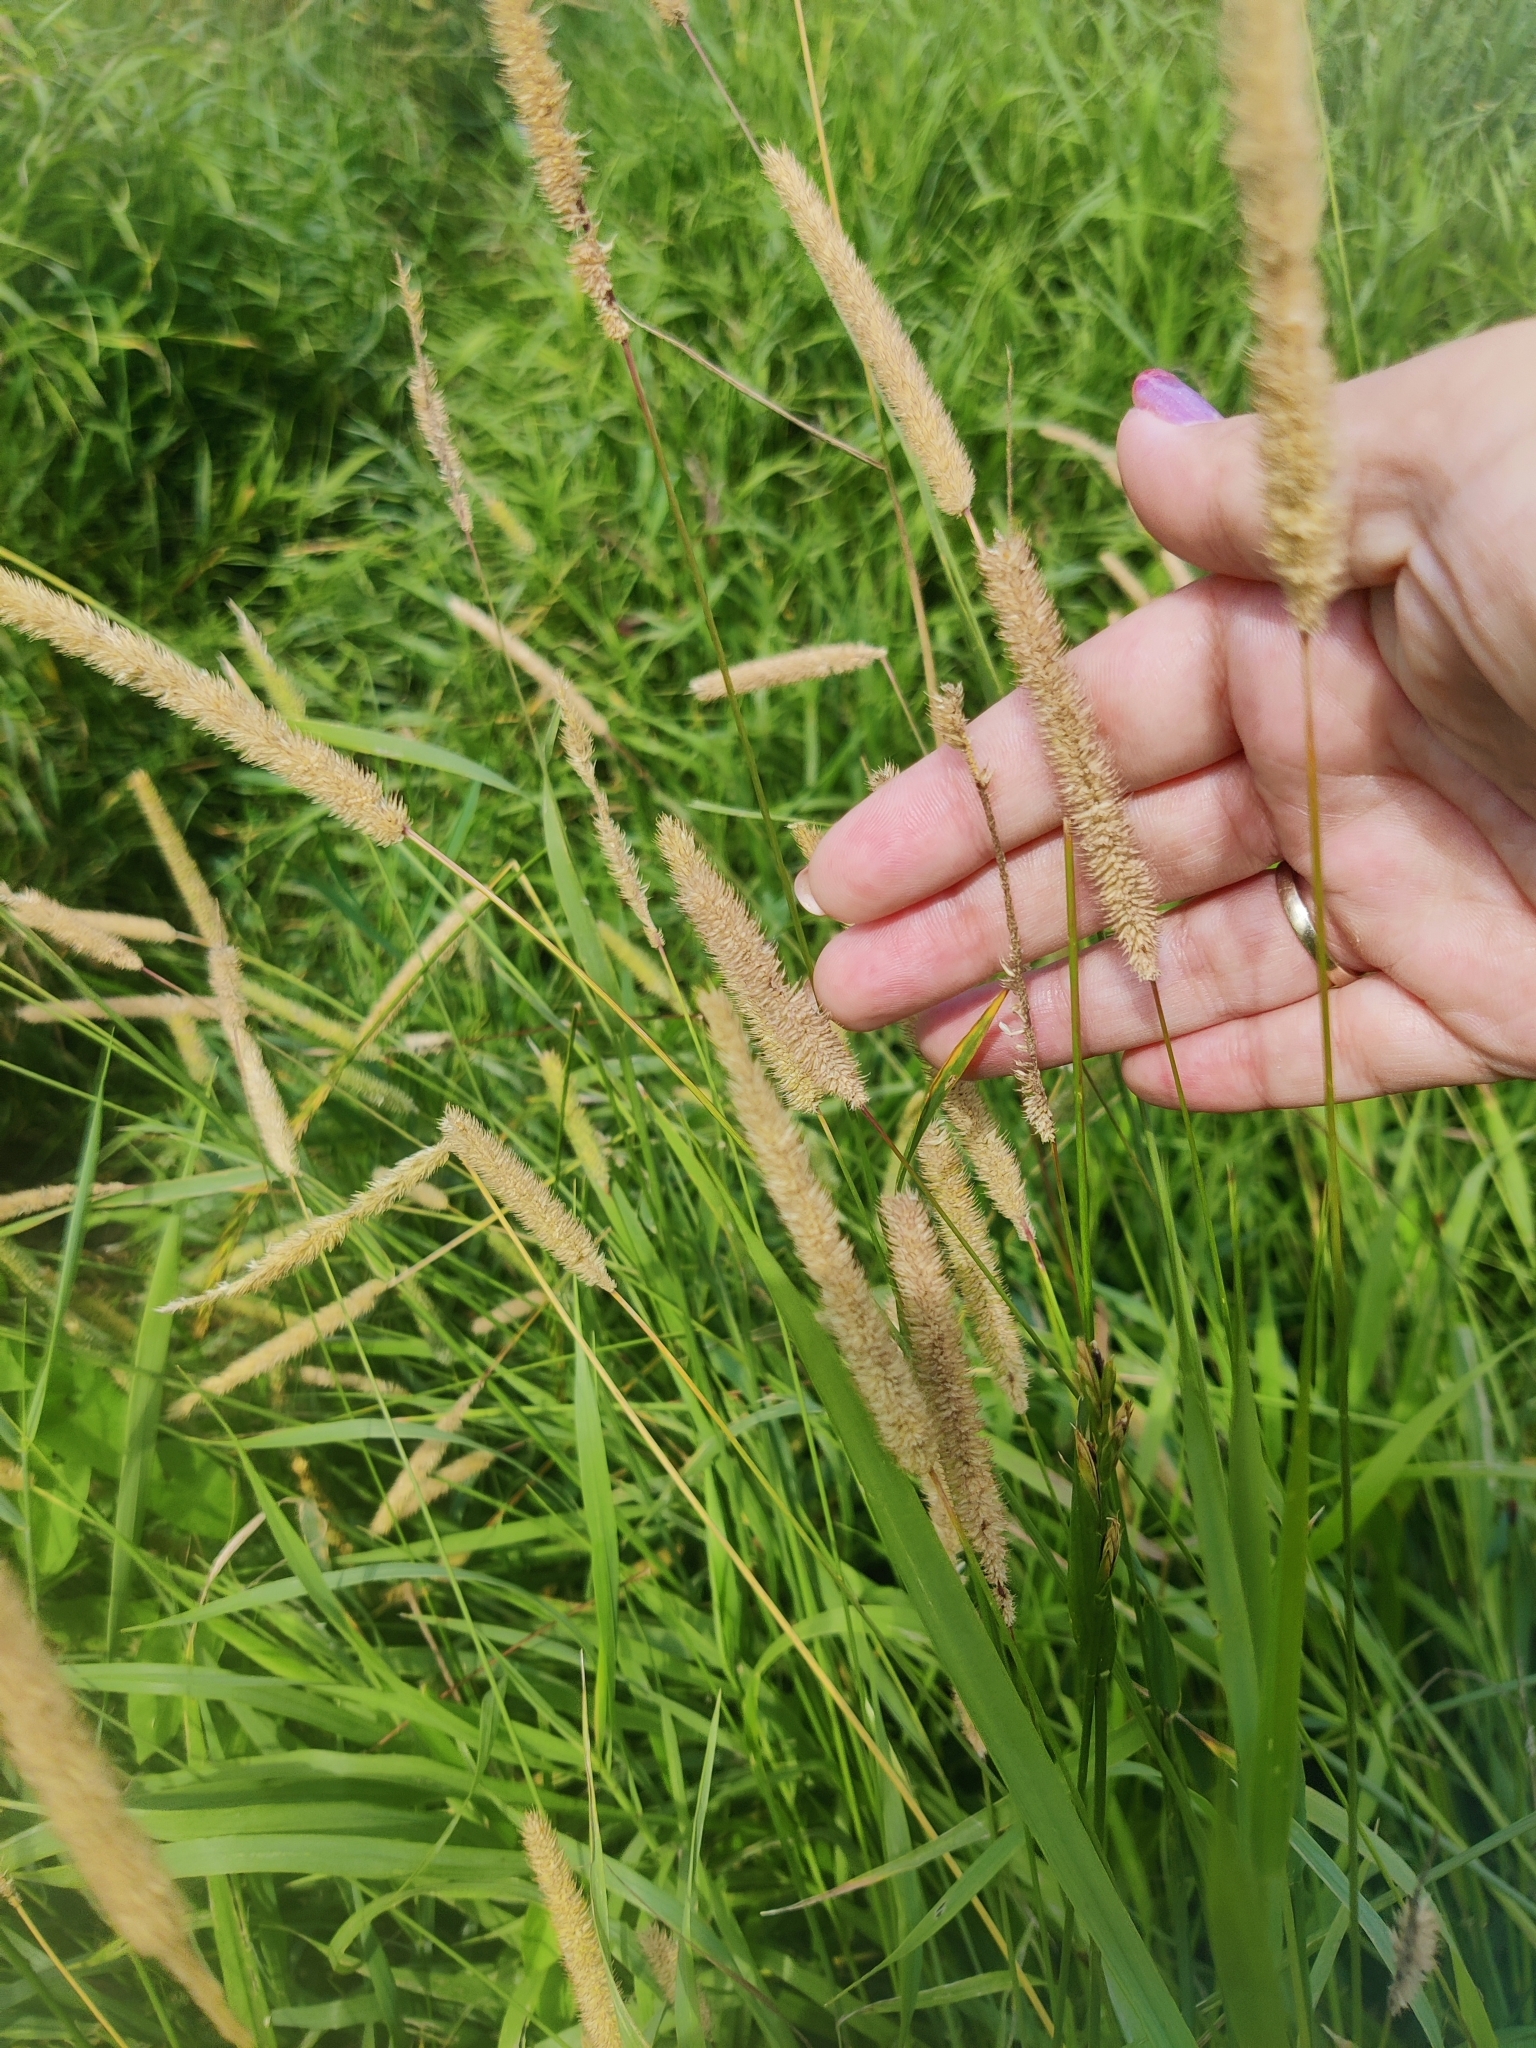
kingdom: Plantae
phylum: Tracheophyta
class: Liliopsida
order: Poales
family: Poaceae
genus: Phleum
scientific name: Phleum pratense
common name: Timothy grass
